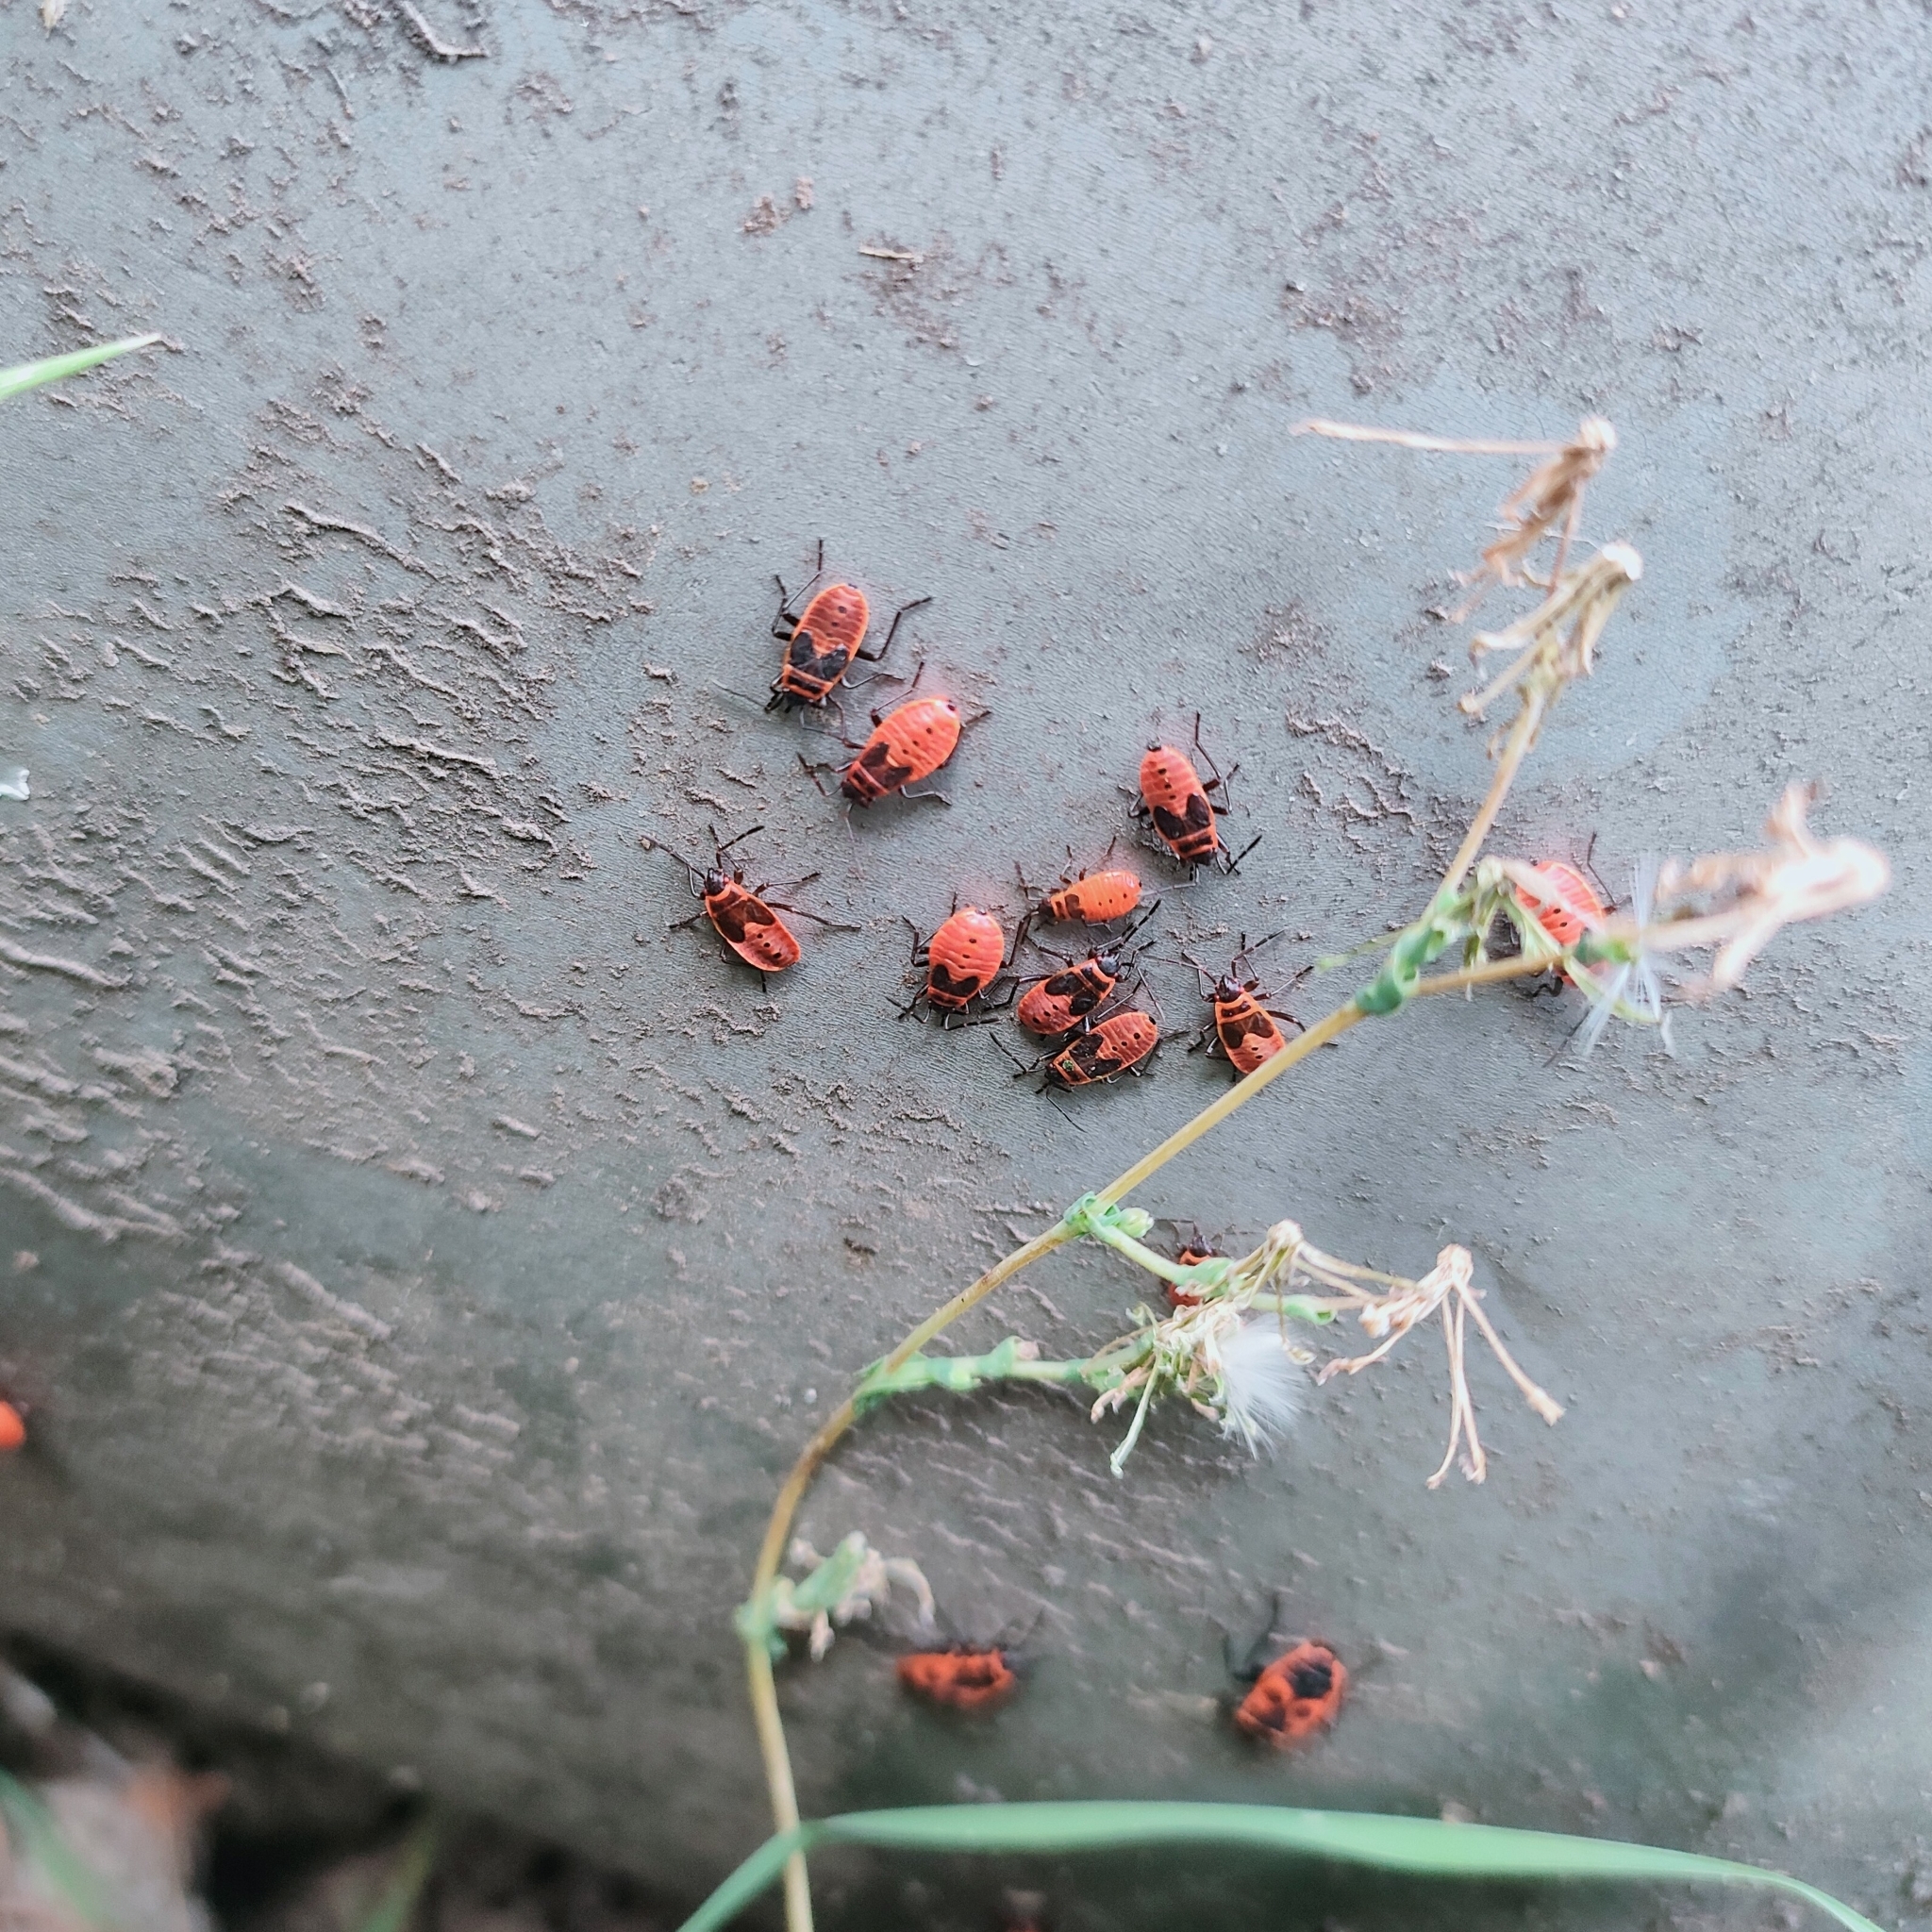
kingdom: Animalia
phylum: Arthropoda
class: Insecta
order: Hemiptera
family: Pyrrhocoridae
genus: Pyrrhocoris
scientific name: Pyrrhocoris apterus
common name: Firebug
